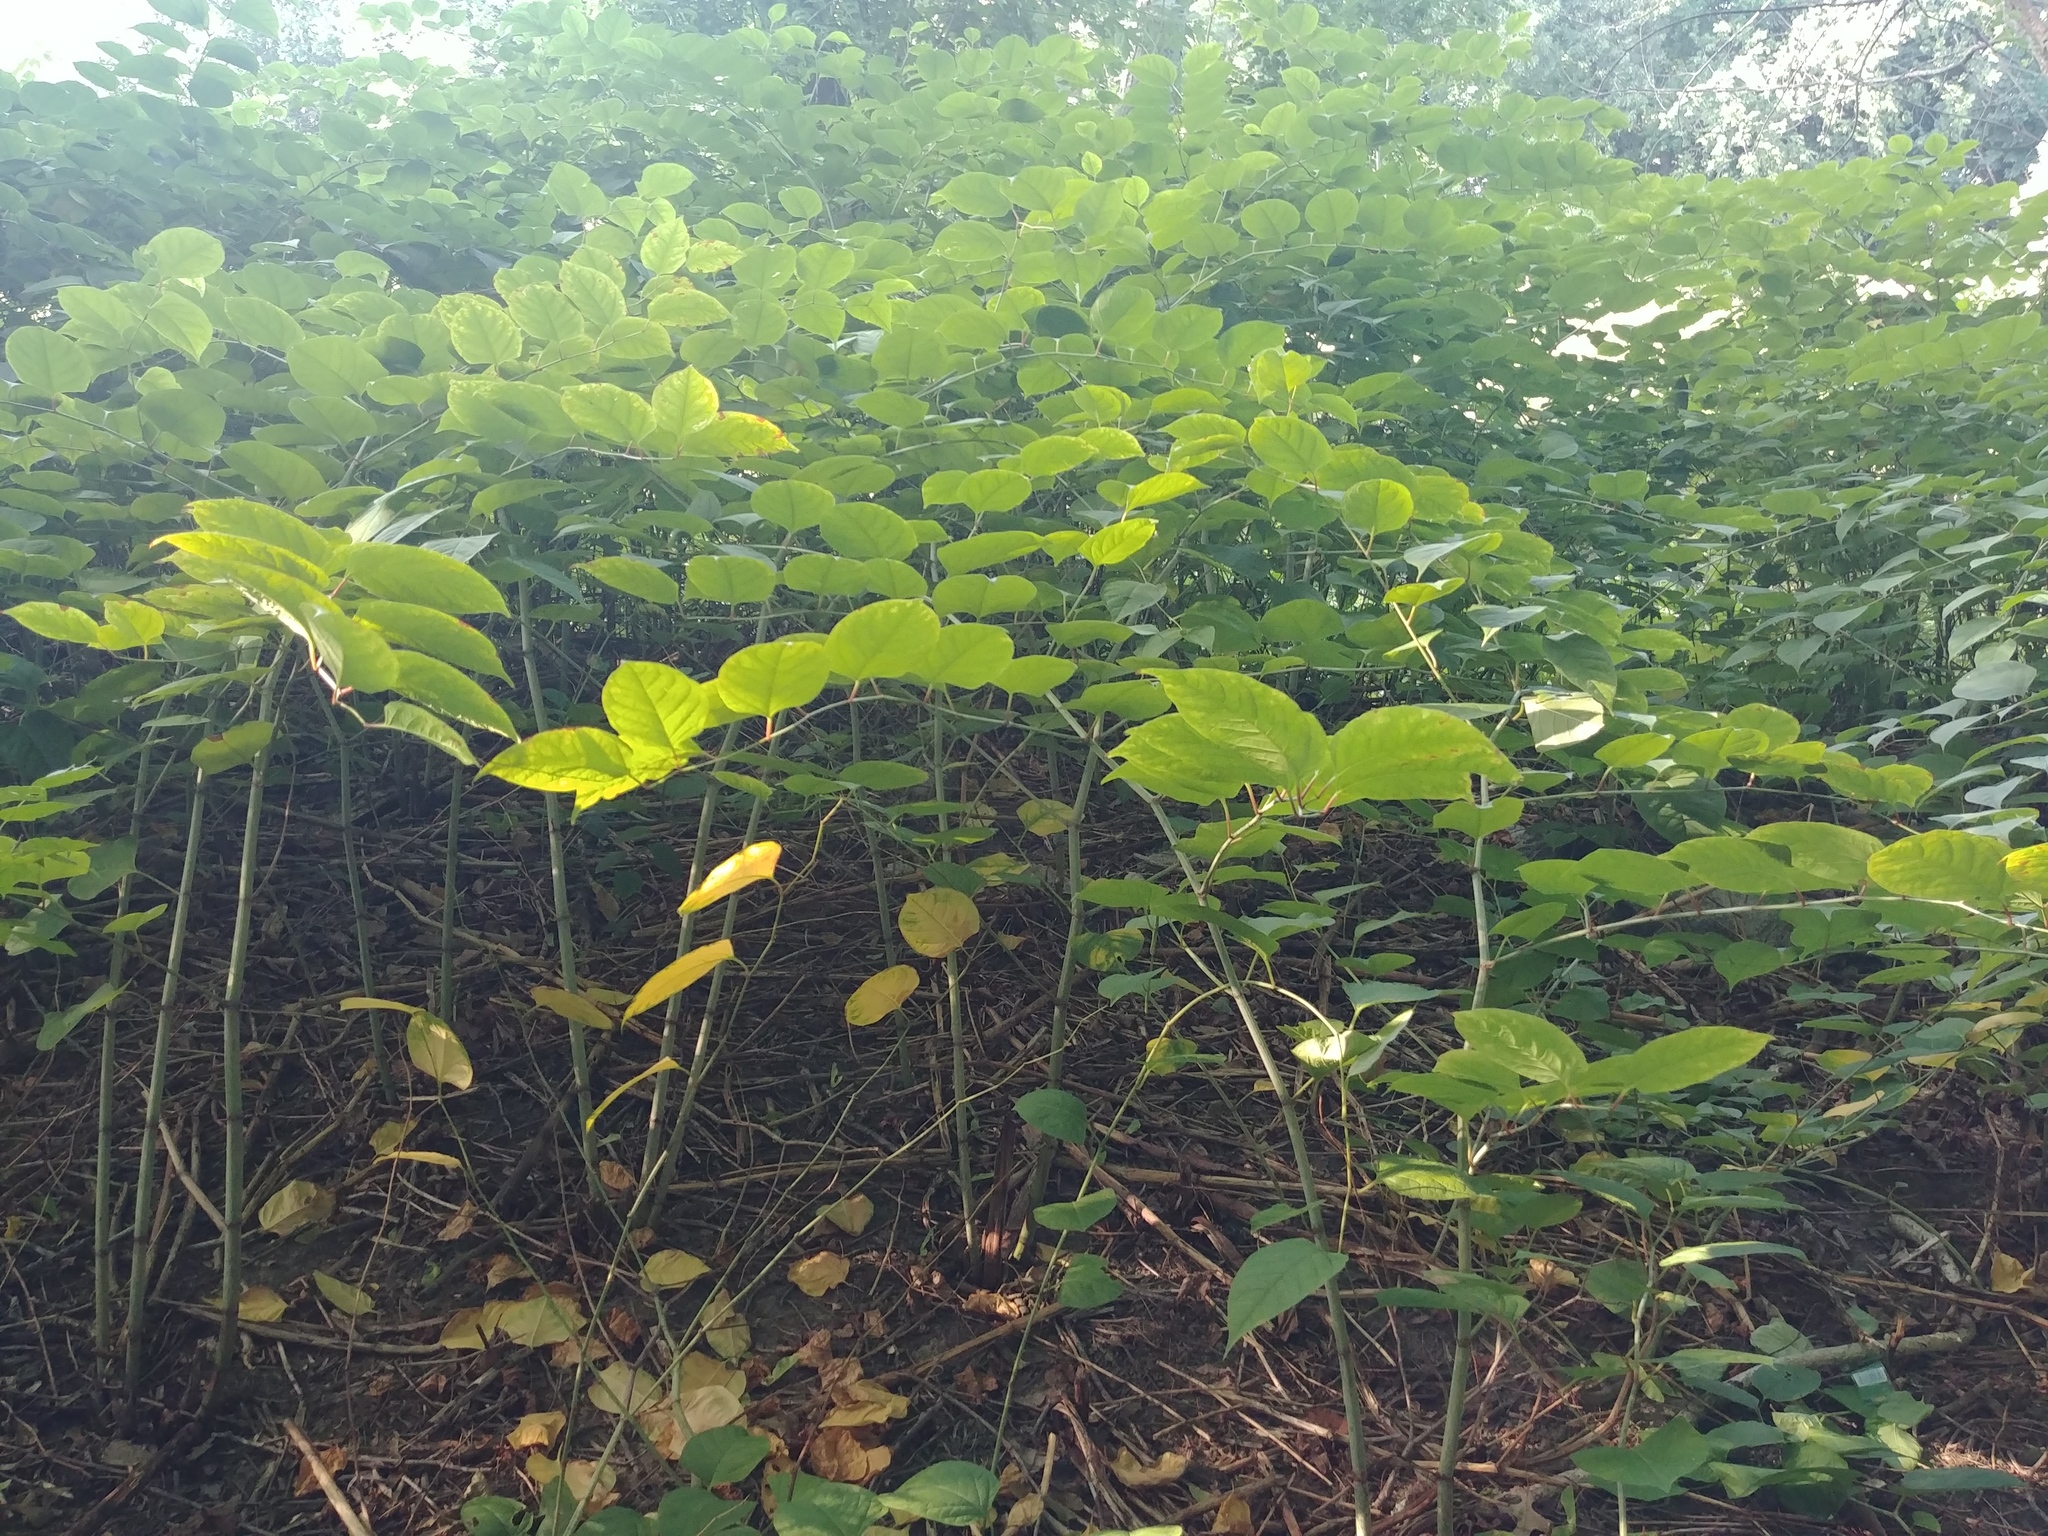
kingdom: Plantae
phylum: Tracheophyta
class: Magnoliopsida
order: Caryophyllales
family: Polygonaceae
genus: Reynoutria
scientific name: Reynoutria japonica
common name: Japanese knotweed
